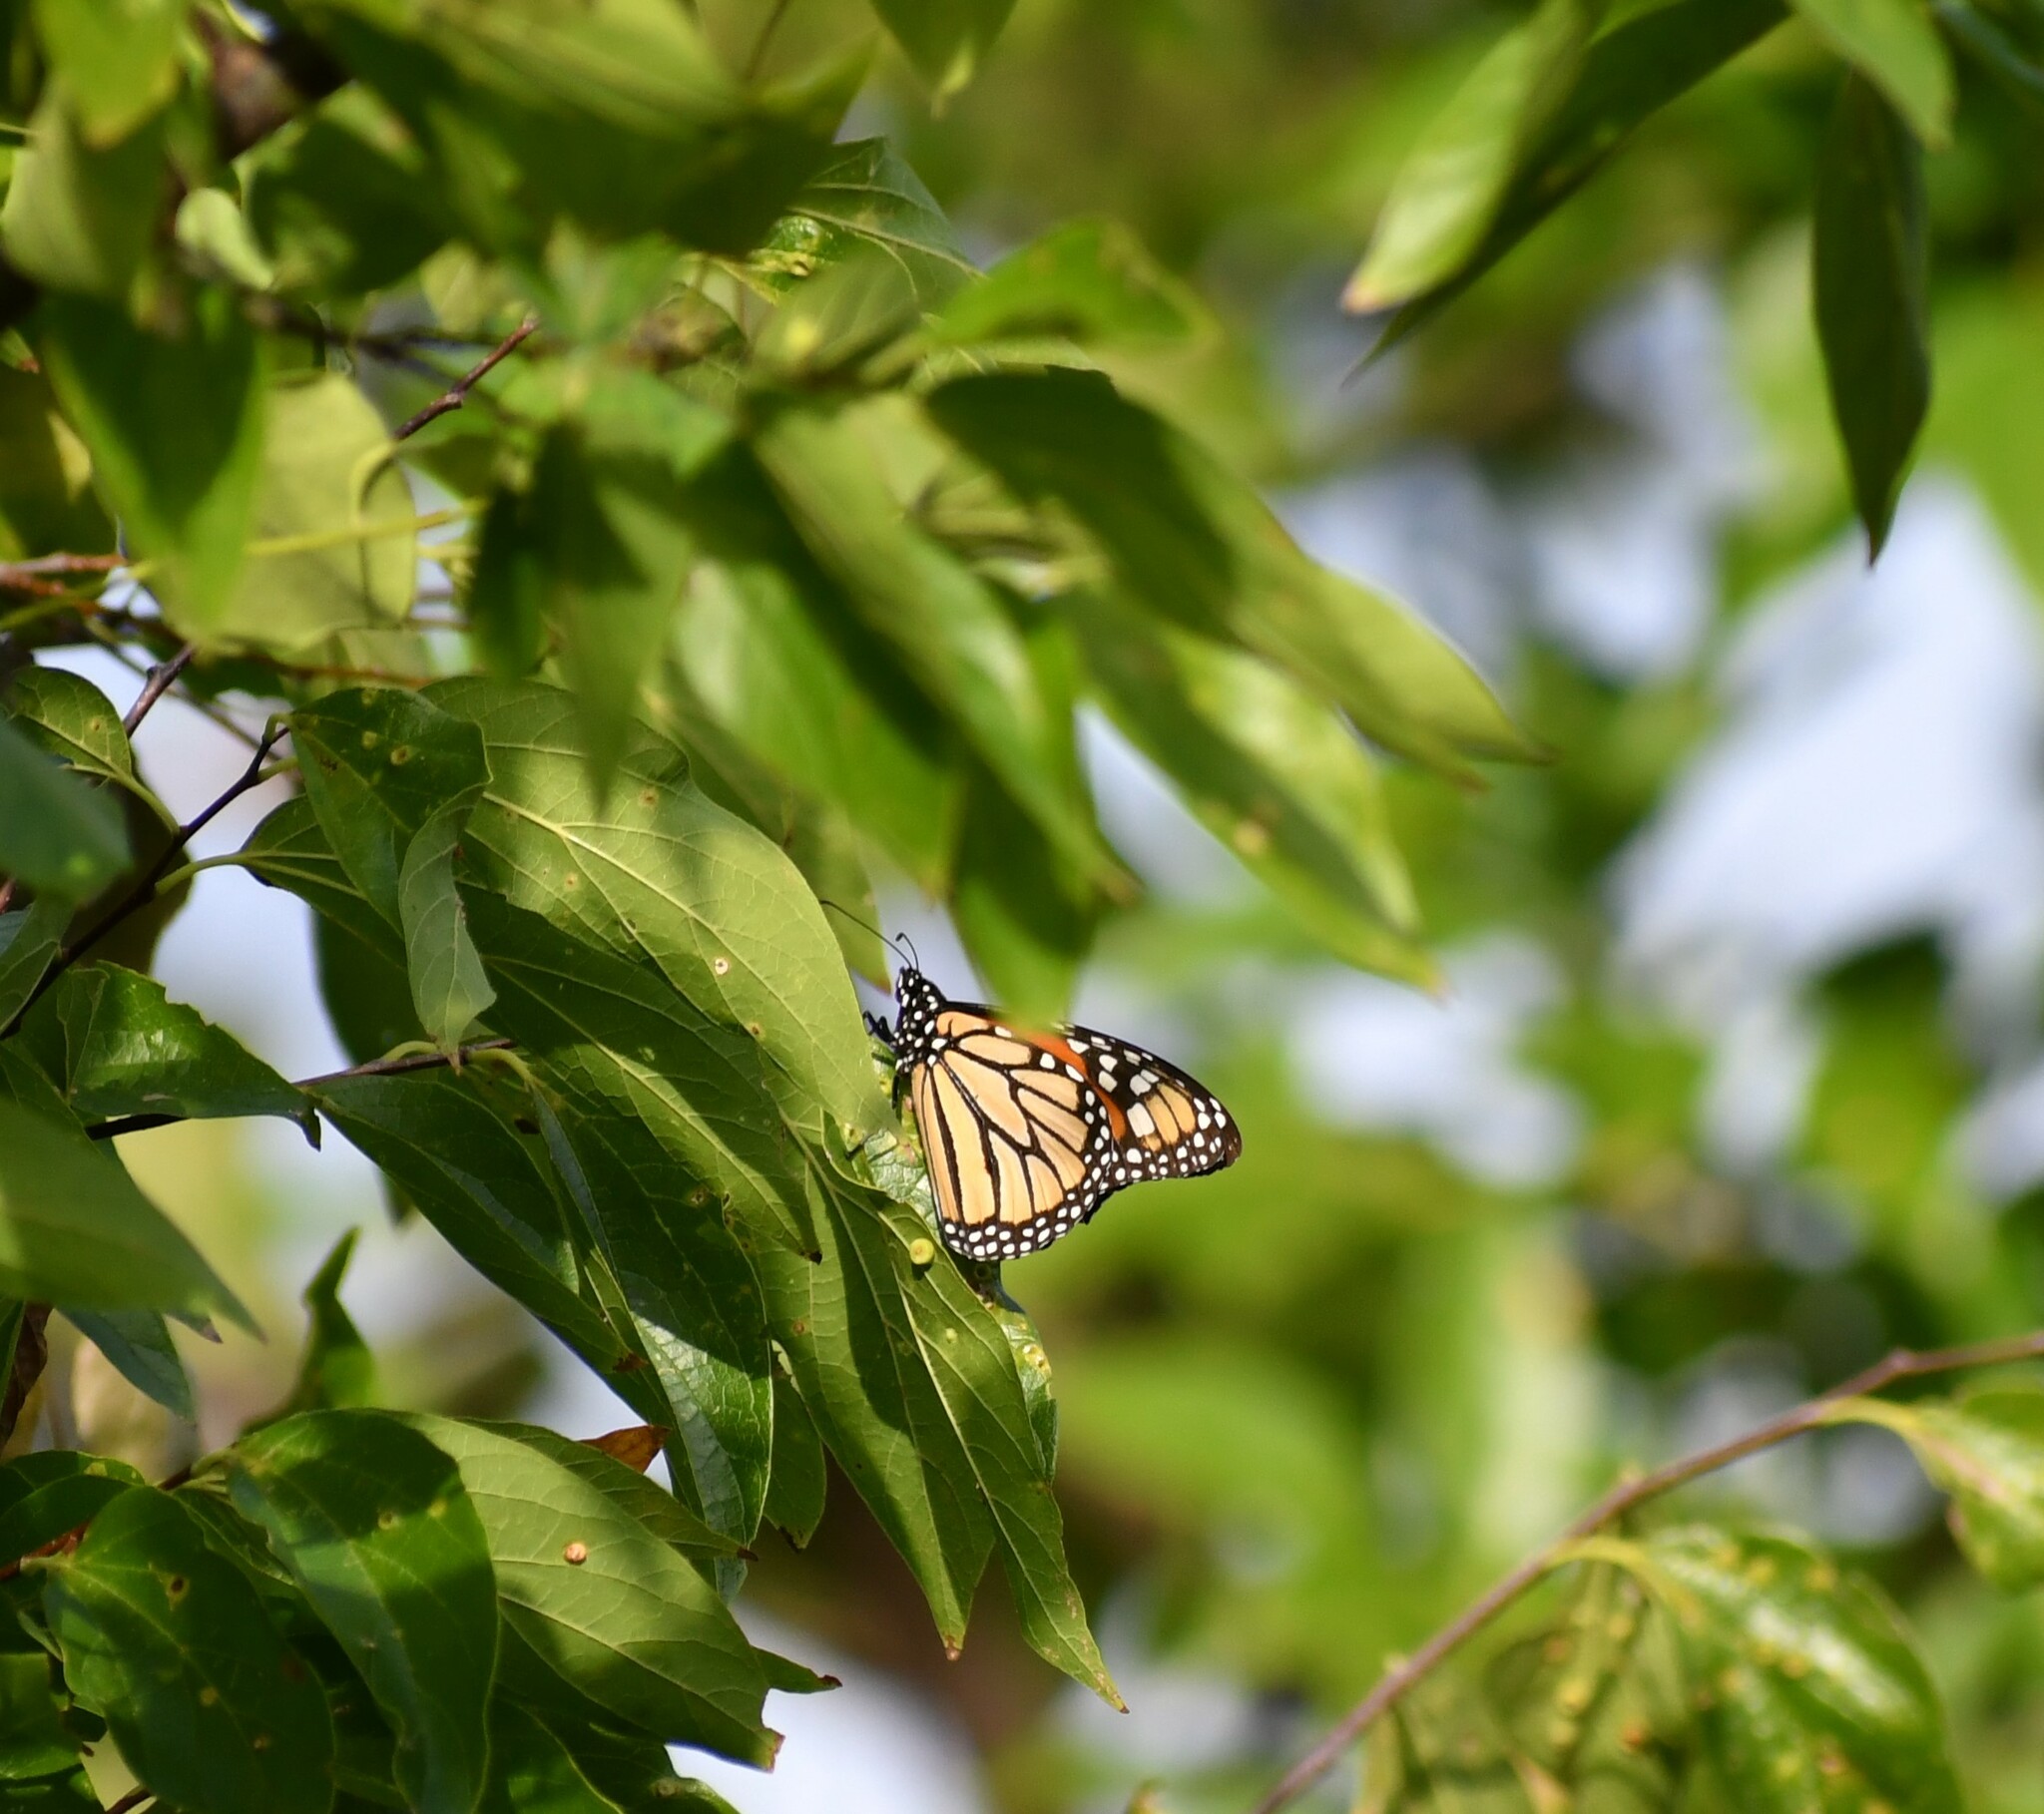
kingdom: Animalia
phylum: Arthropoda
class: Insecta
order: Lepidoptera
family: Nymphalidae
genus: Danaus
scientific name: Danaus plexippus
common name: Monarch
